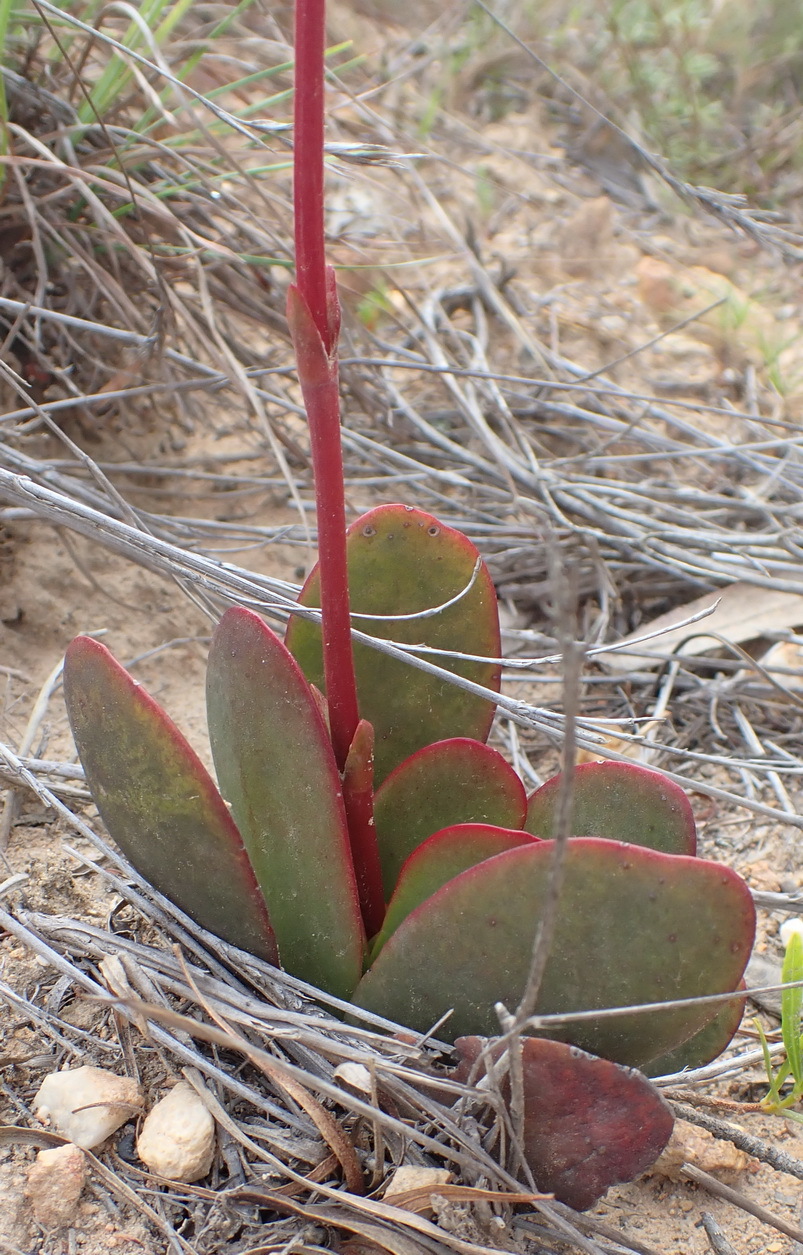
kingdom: Plantae
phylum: Tracheophyta
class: Magnoliopsida
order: Saxifragales
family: Crassulaceae
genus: Crassula
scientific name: Crassula nudicaulis
